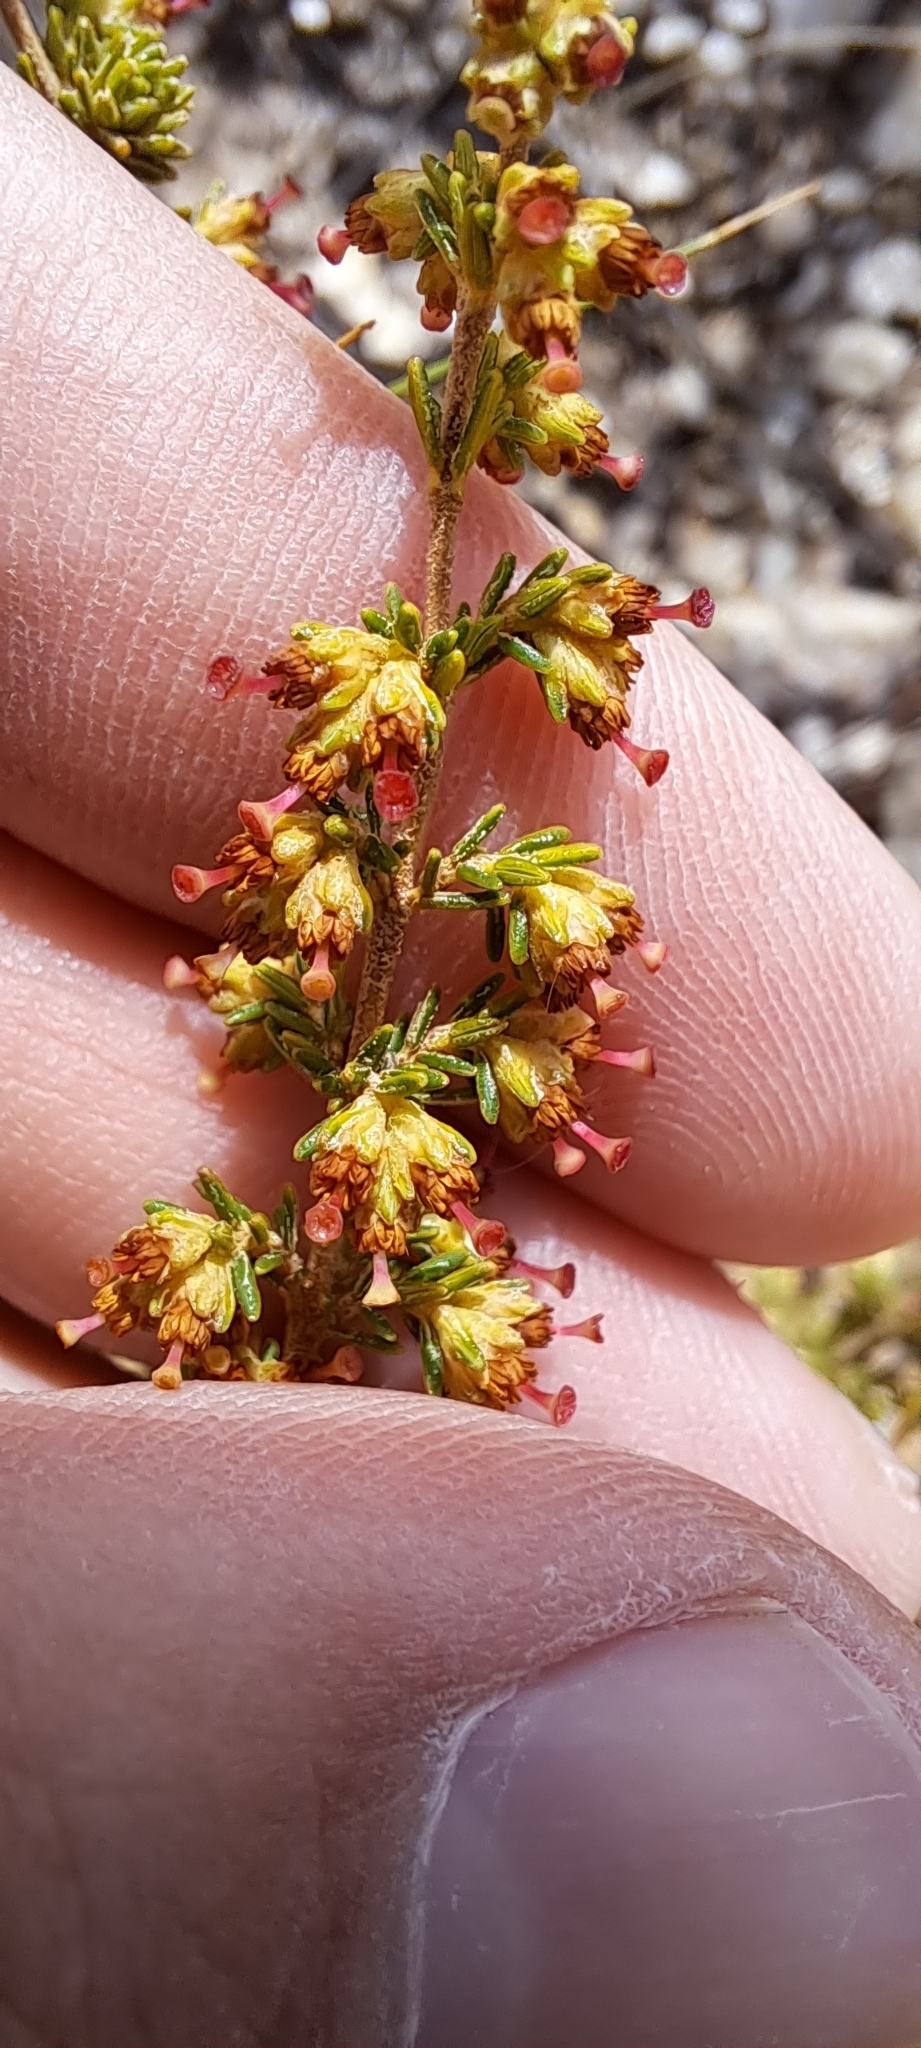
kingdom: Plantae
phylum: Tracheophyta
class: Magnoliopsida
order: Ericales
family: Ericaceae
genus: Erica
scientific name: Erica lasciva
